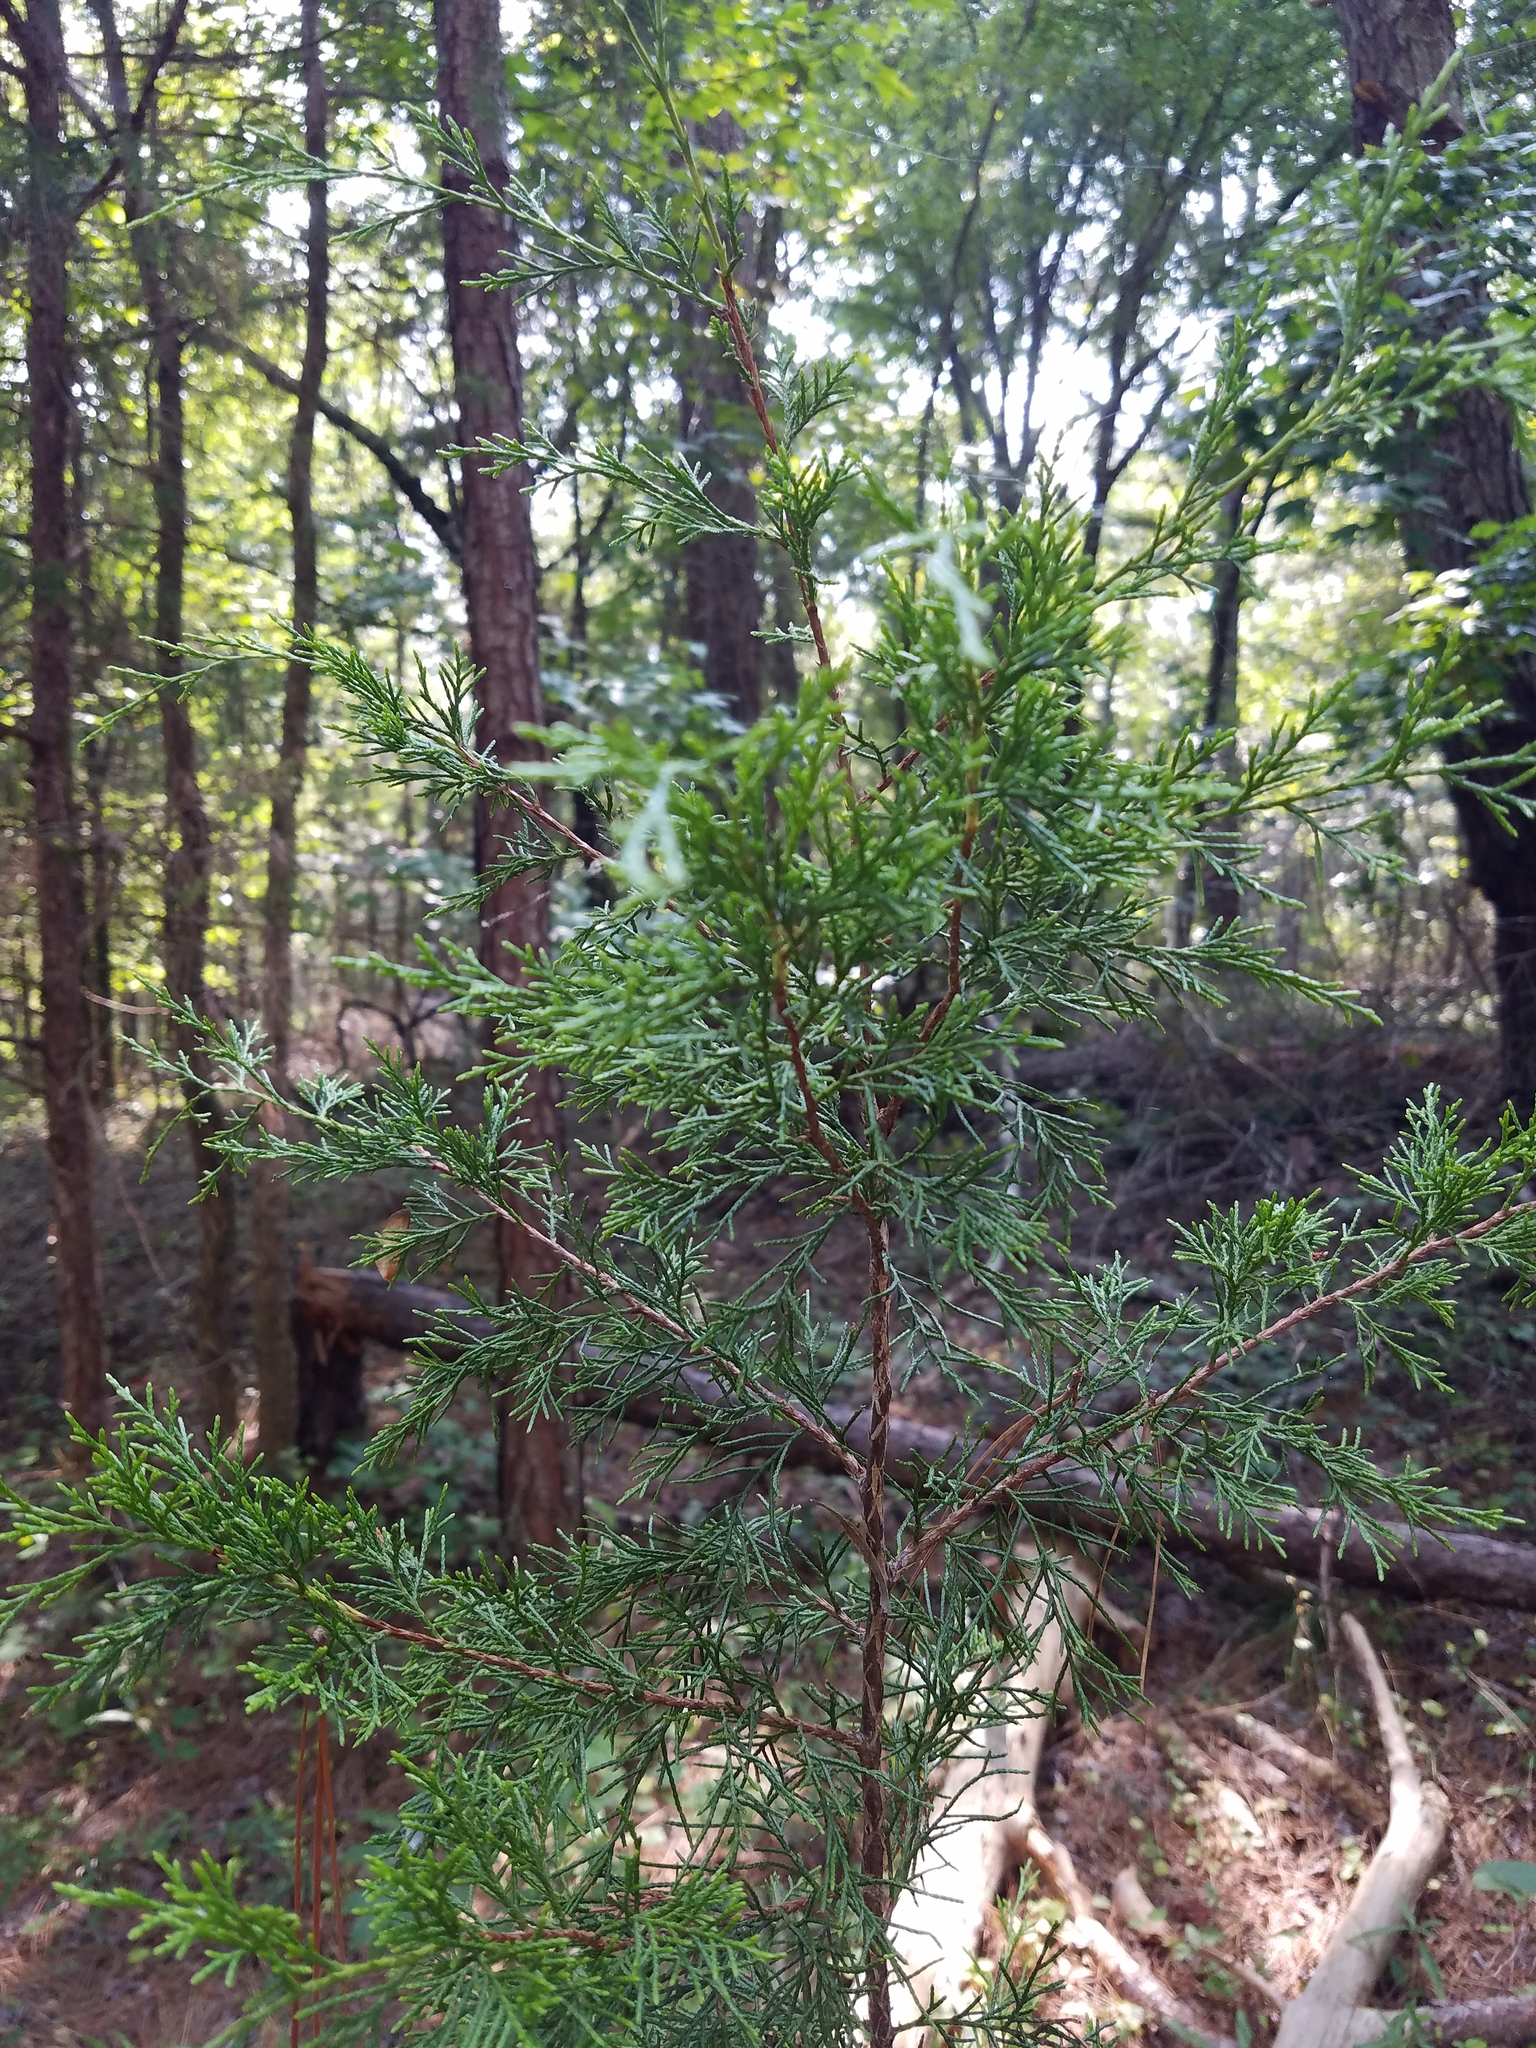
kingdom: Plantae
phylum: Tracheophyta
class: Pinopsida
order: Pinales
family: Cupressaceae
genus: Juniperus
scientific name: Juniperus virginiana
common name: Red juniper
